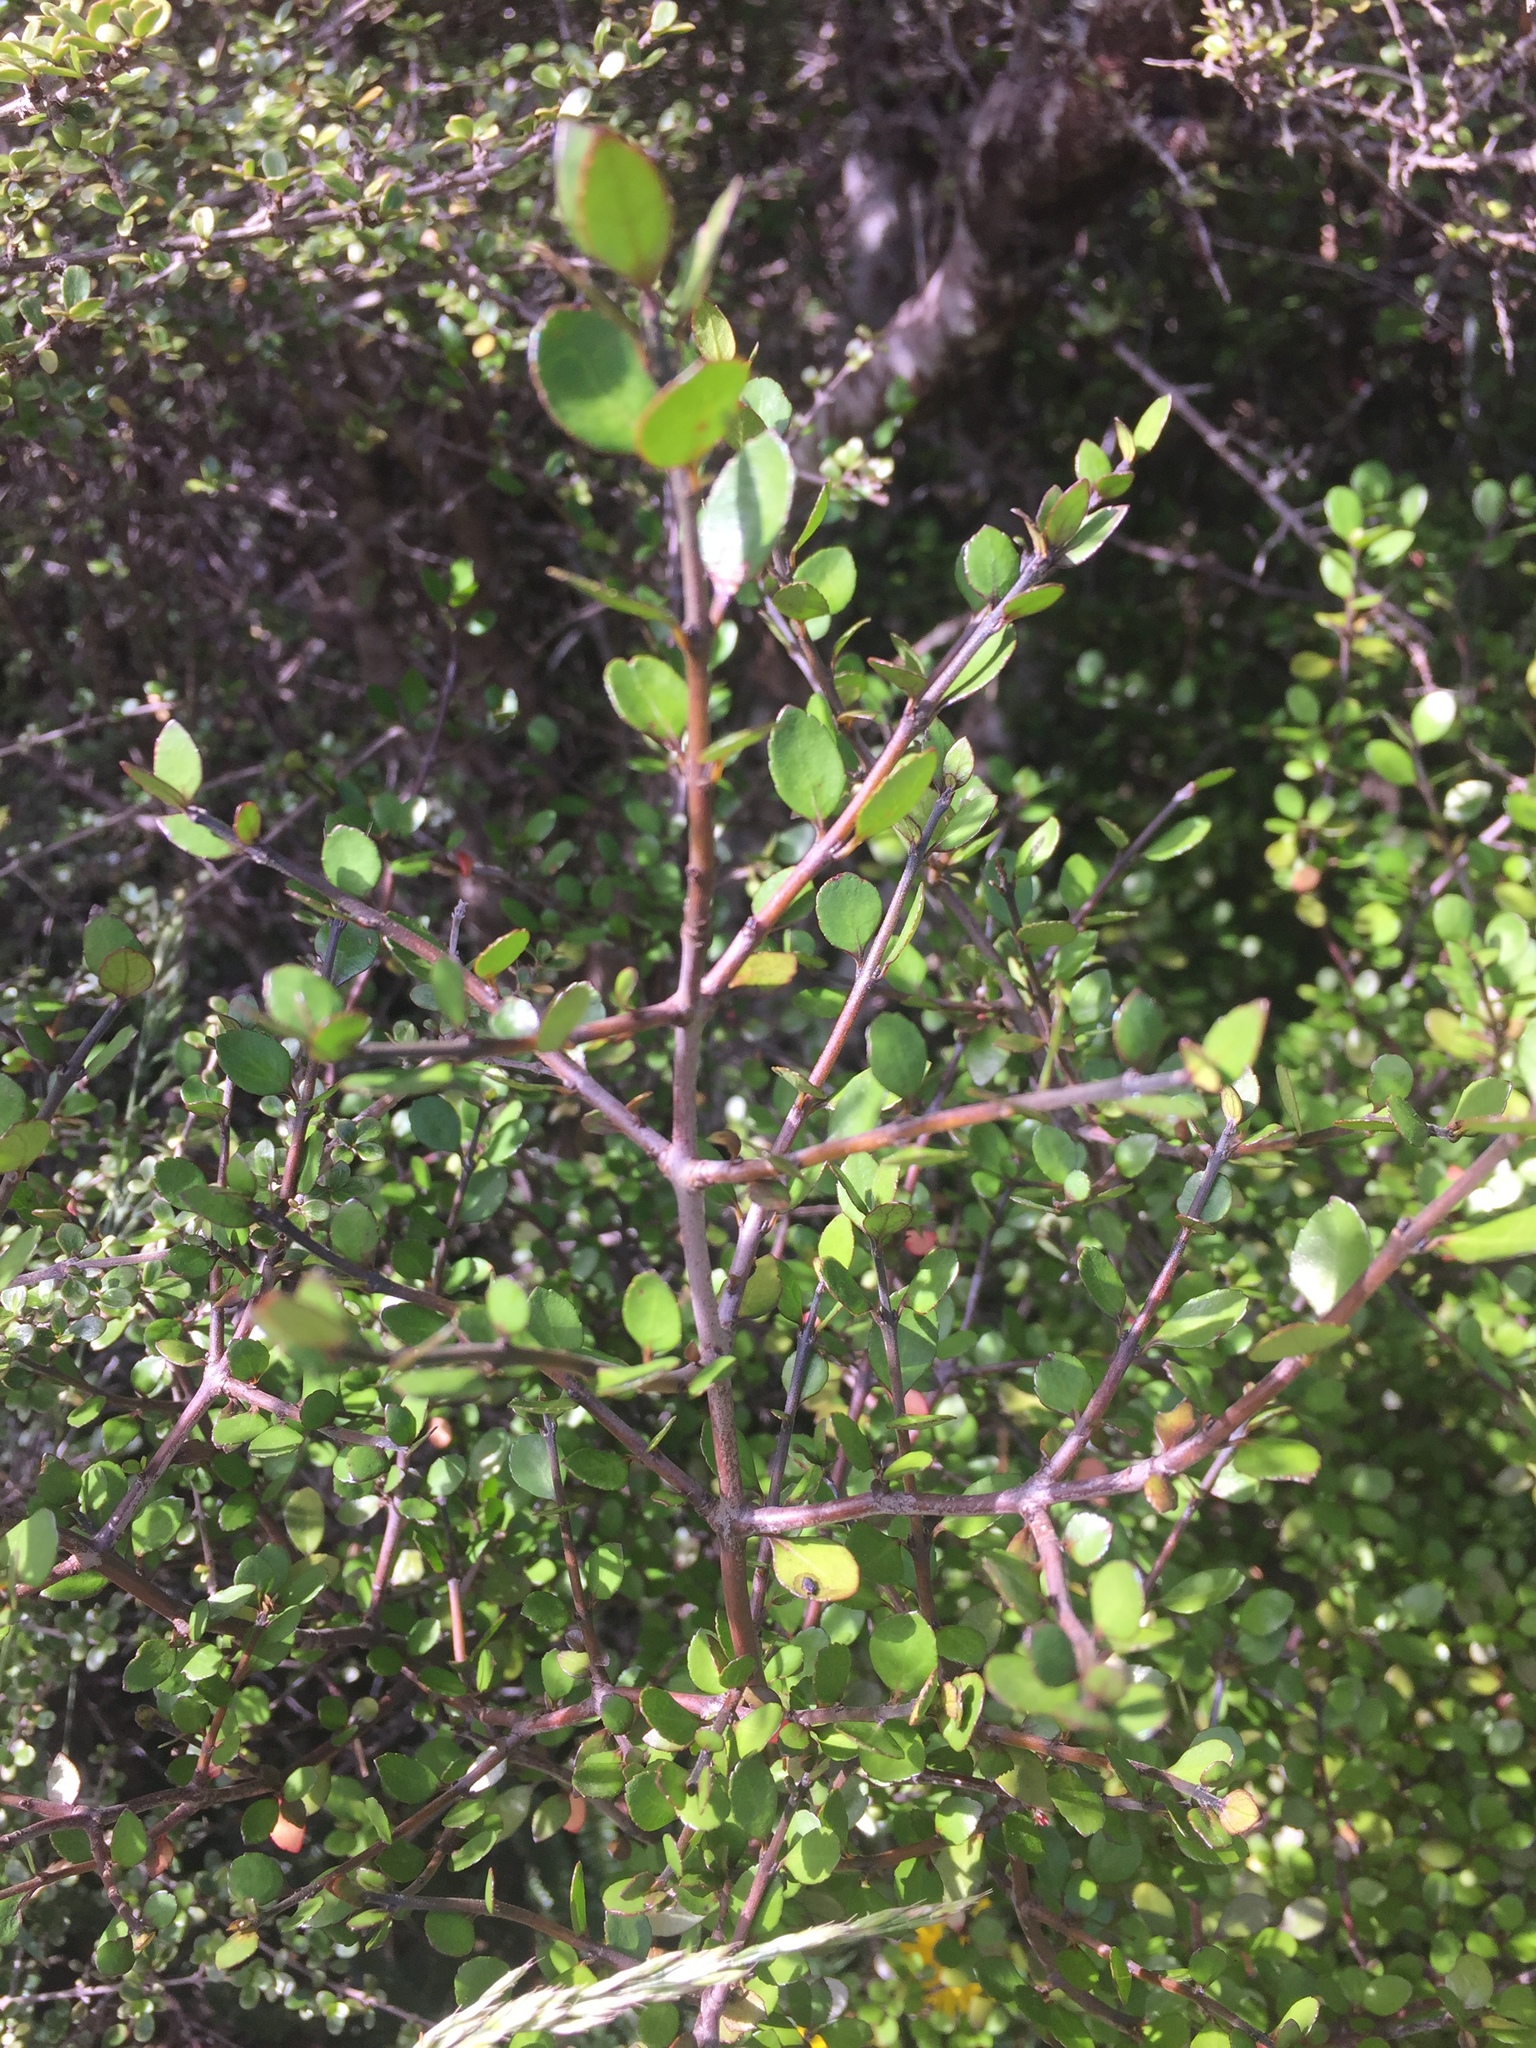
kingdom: Plantae
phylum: Tracheophyta
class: Magnoliopsida
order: Oxalidales
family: Elaeocarpaceae
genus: Aristotelia
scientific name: Aristotelia fruticosa
